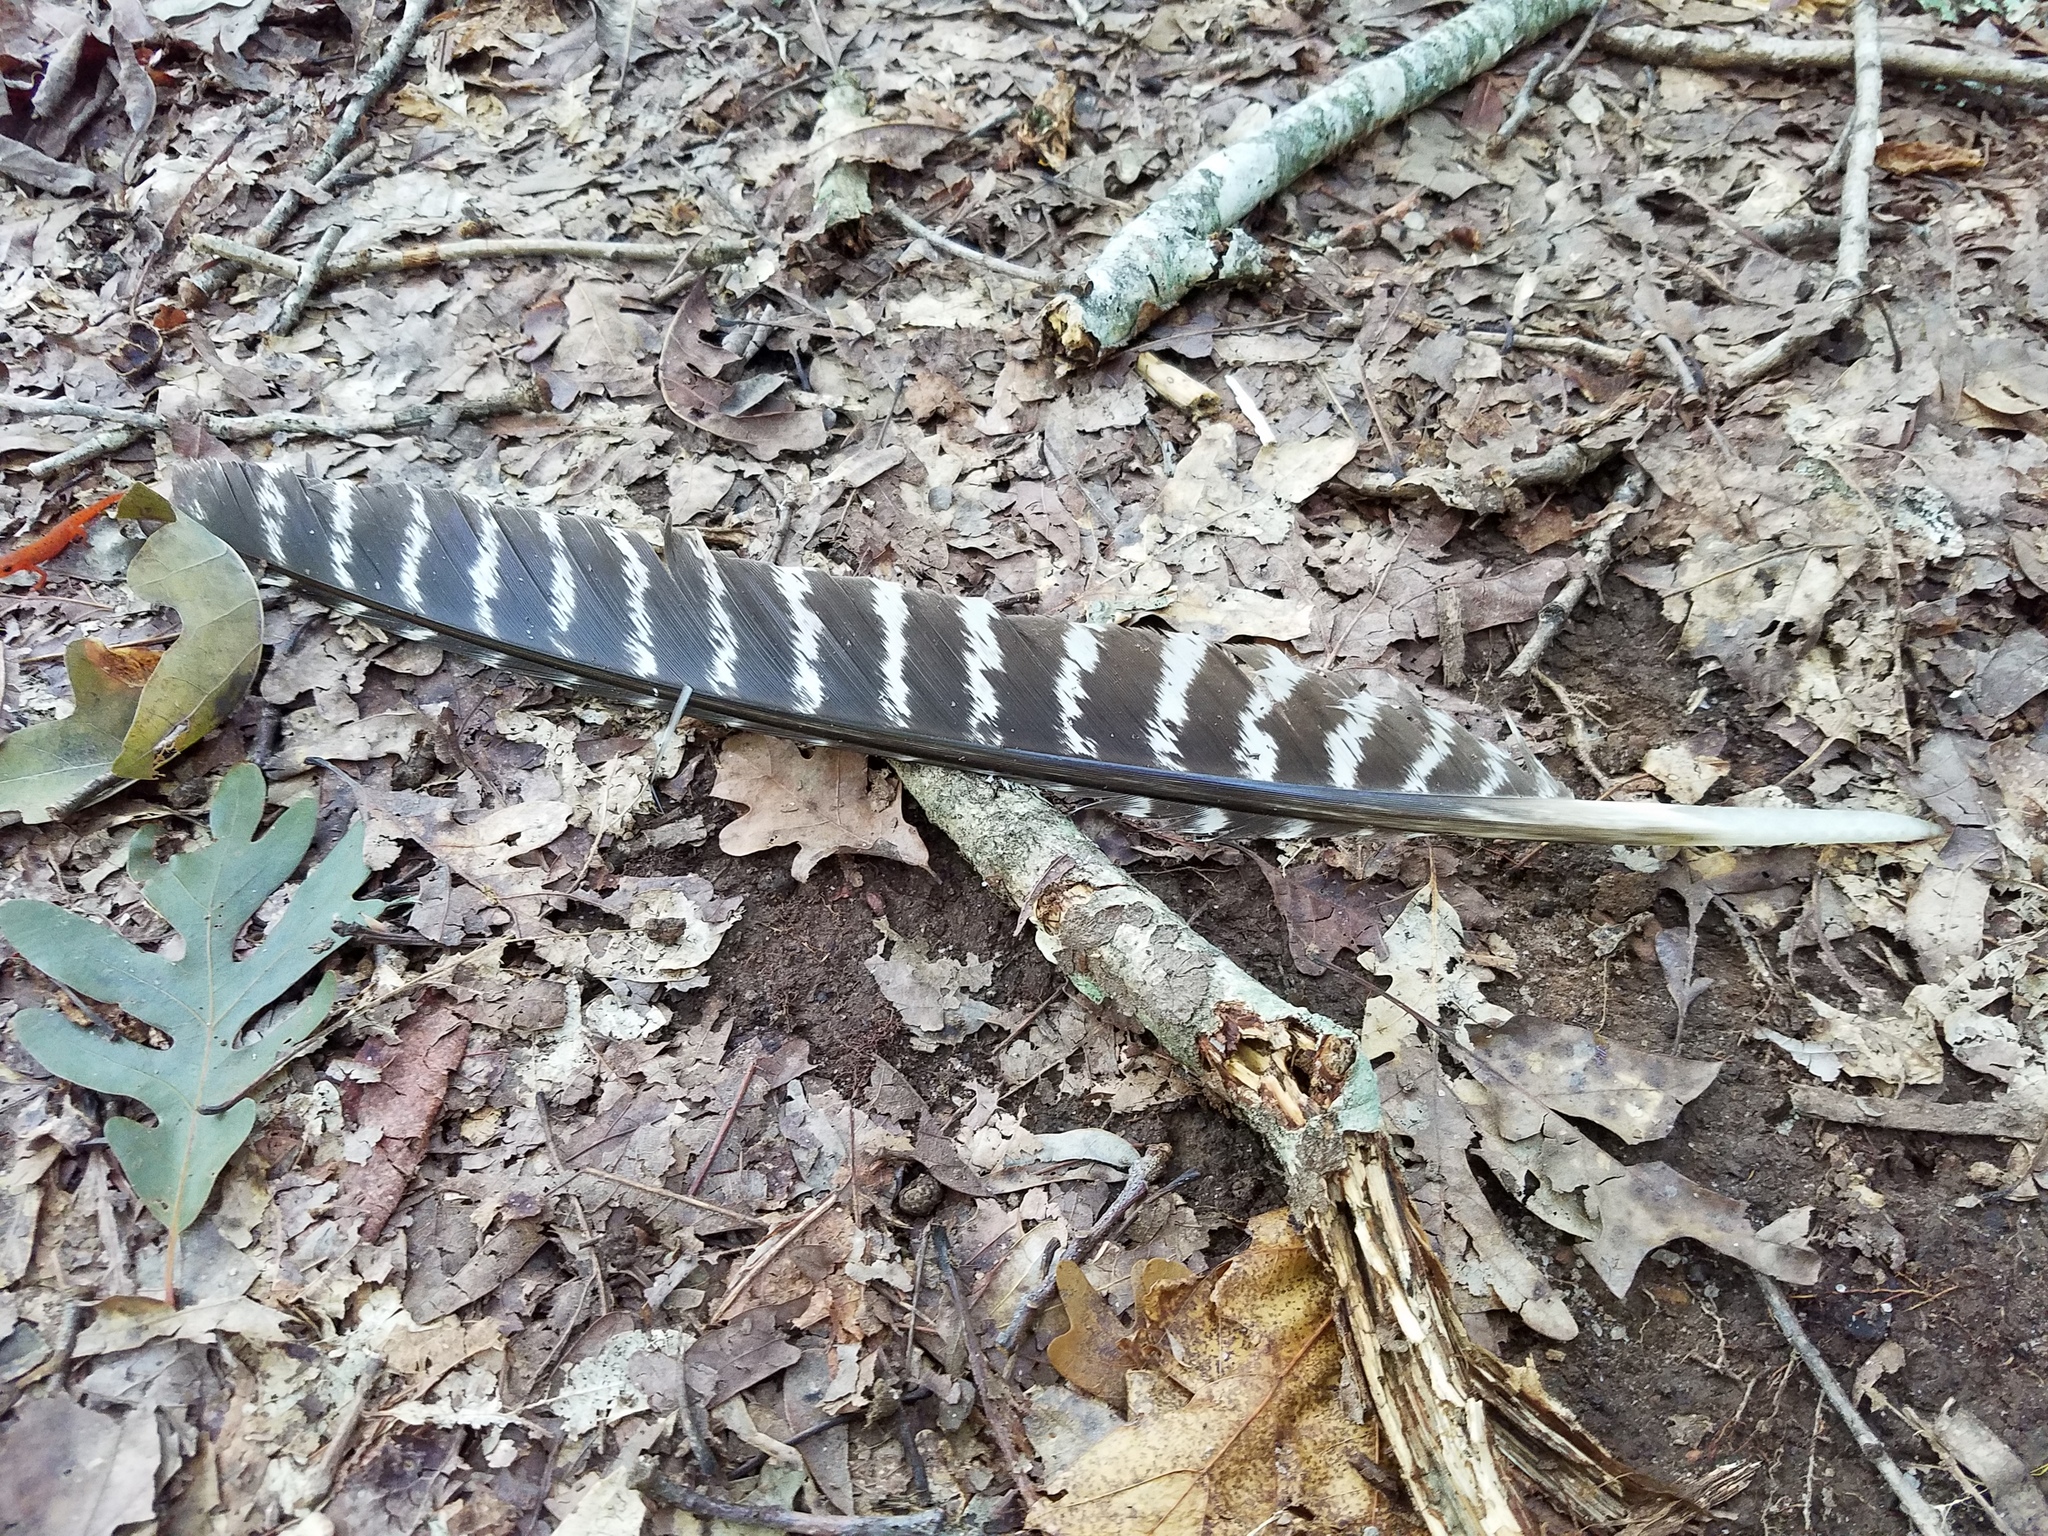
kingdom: Animalia
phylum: Chordata
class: Aves
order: Galliformes
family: Phasianidae
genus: Meleagris
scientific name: Meleagris gallopavo
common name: Wild turkey
